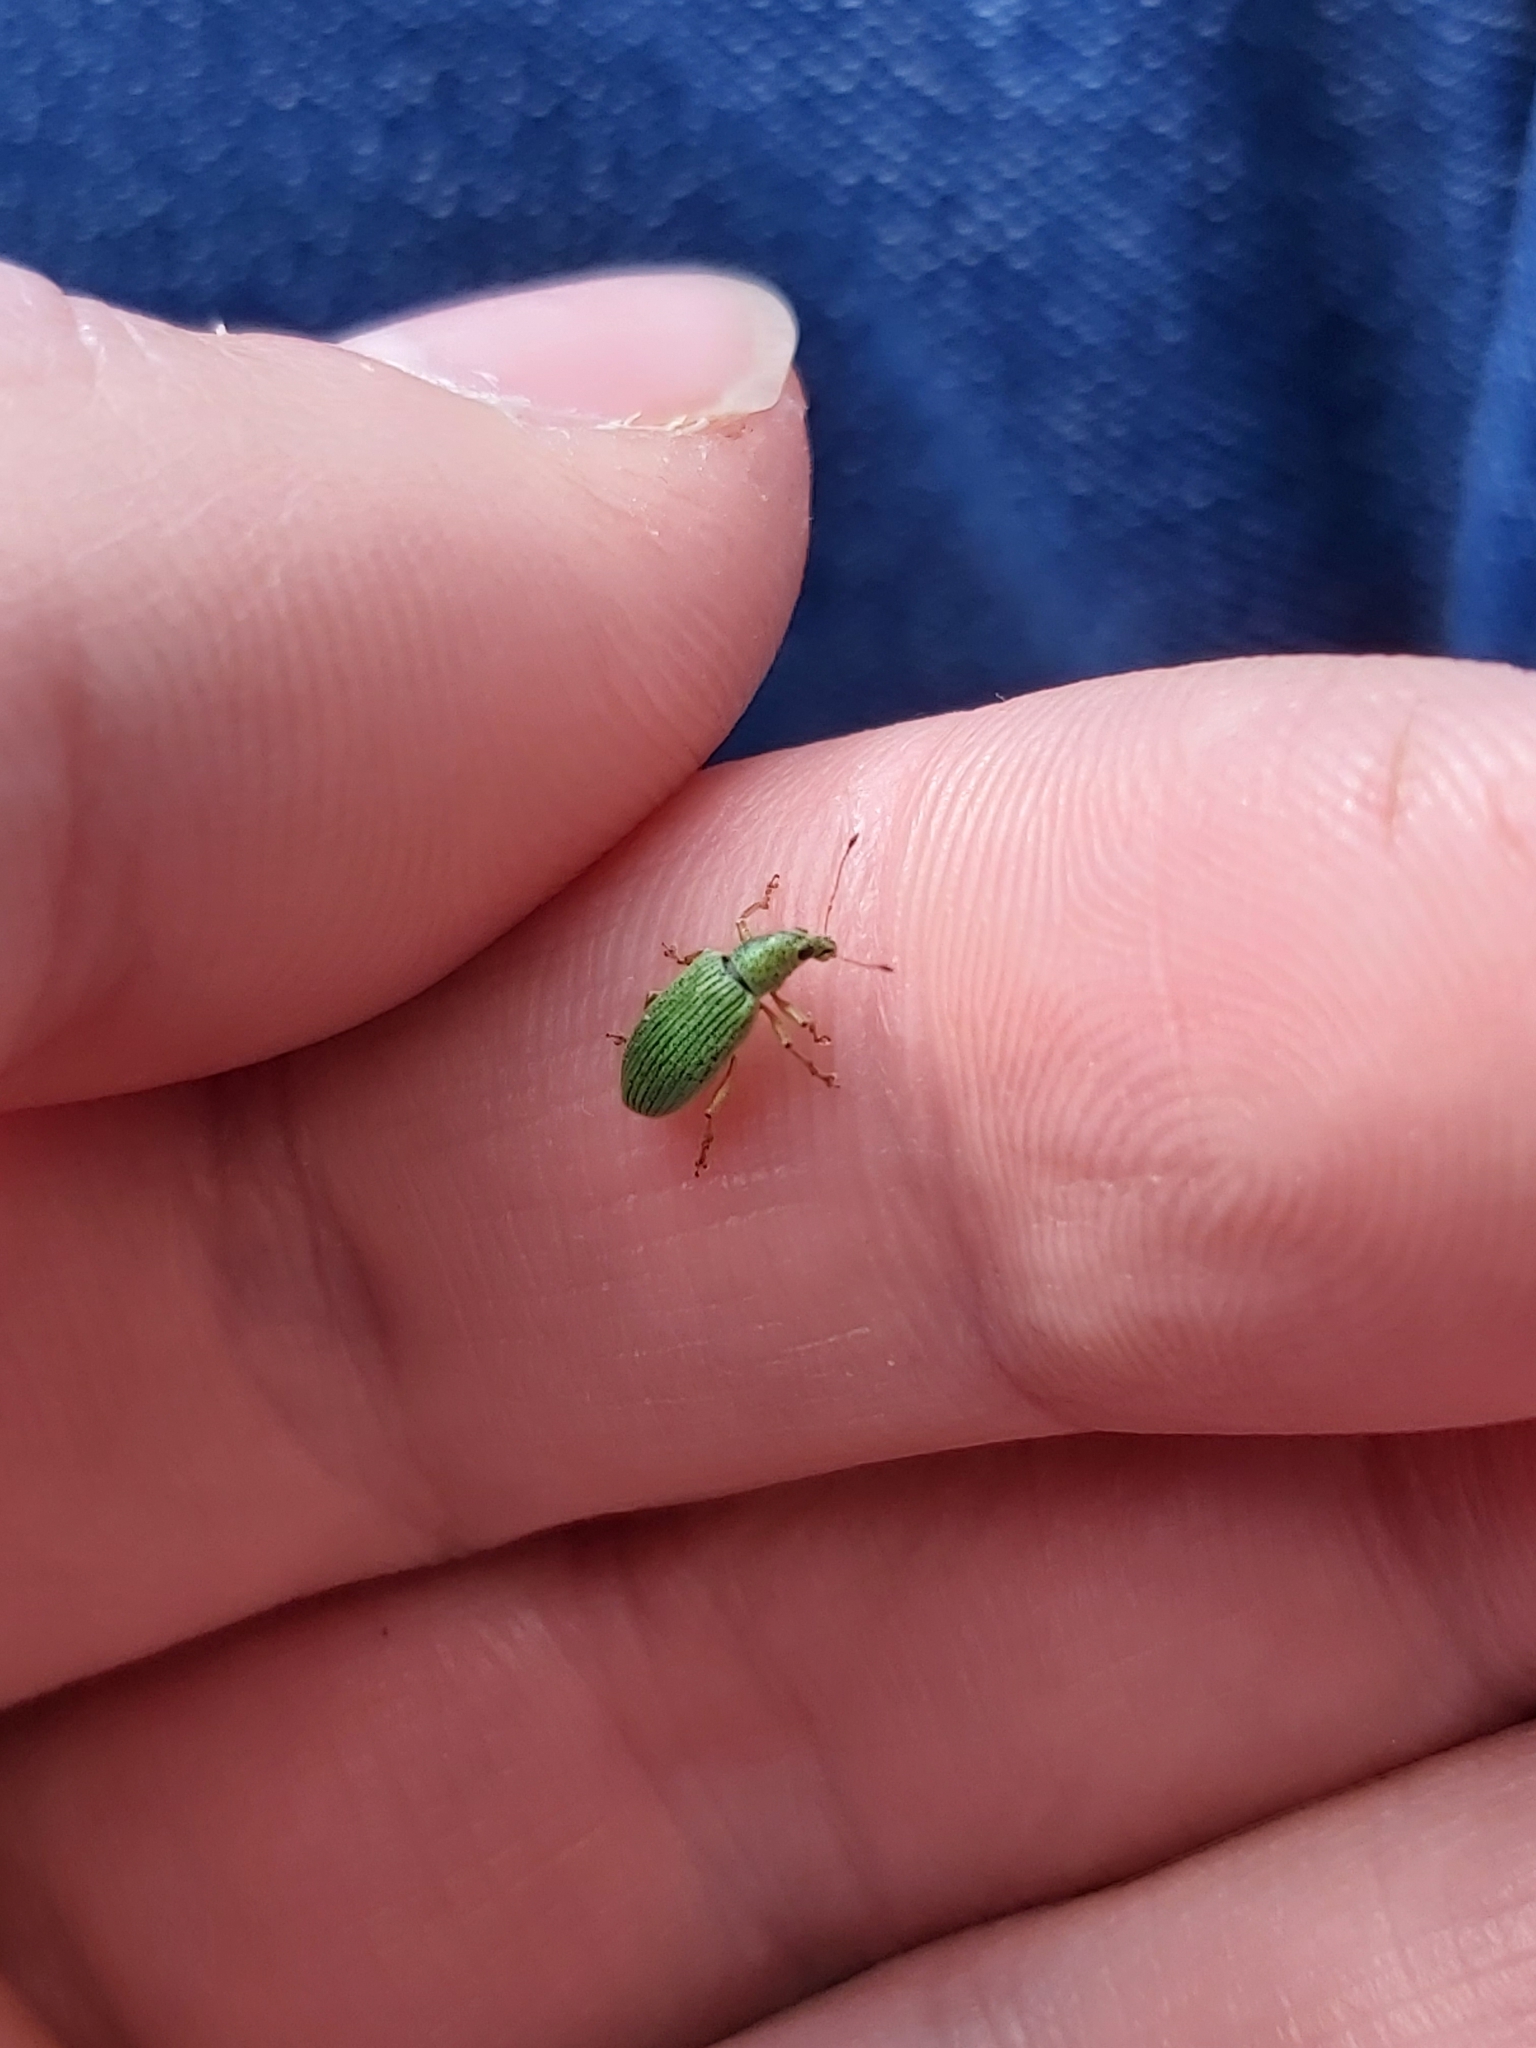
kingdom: Animalia
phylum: Arthropoda
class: Insecta
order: Coleoptera
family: Curculionidae
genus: Polydrusus
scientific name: Polydrusus formosus
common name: Weevil
